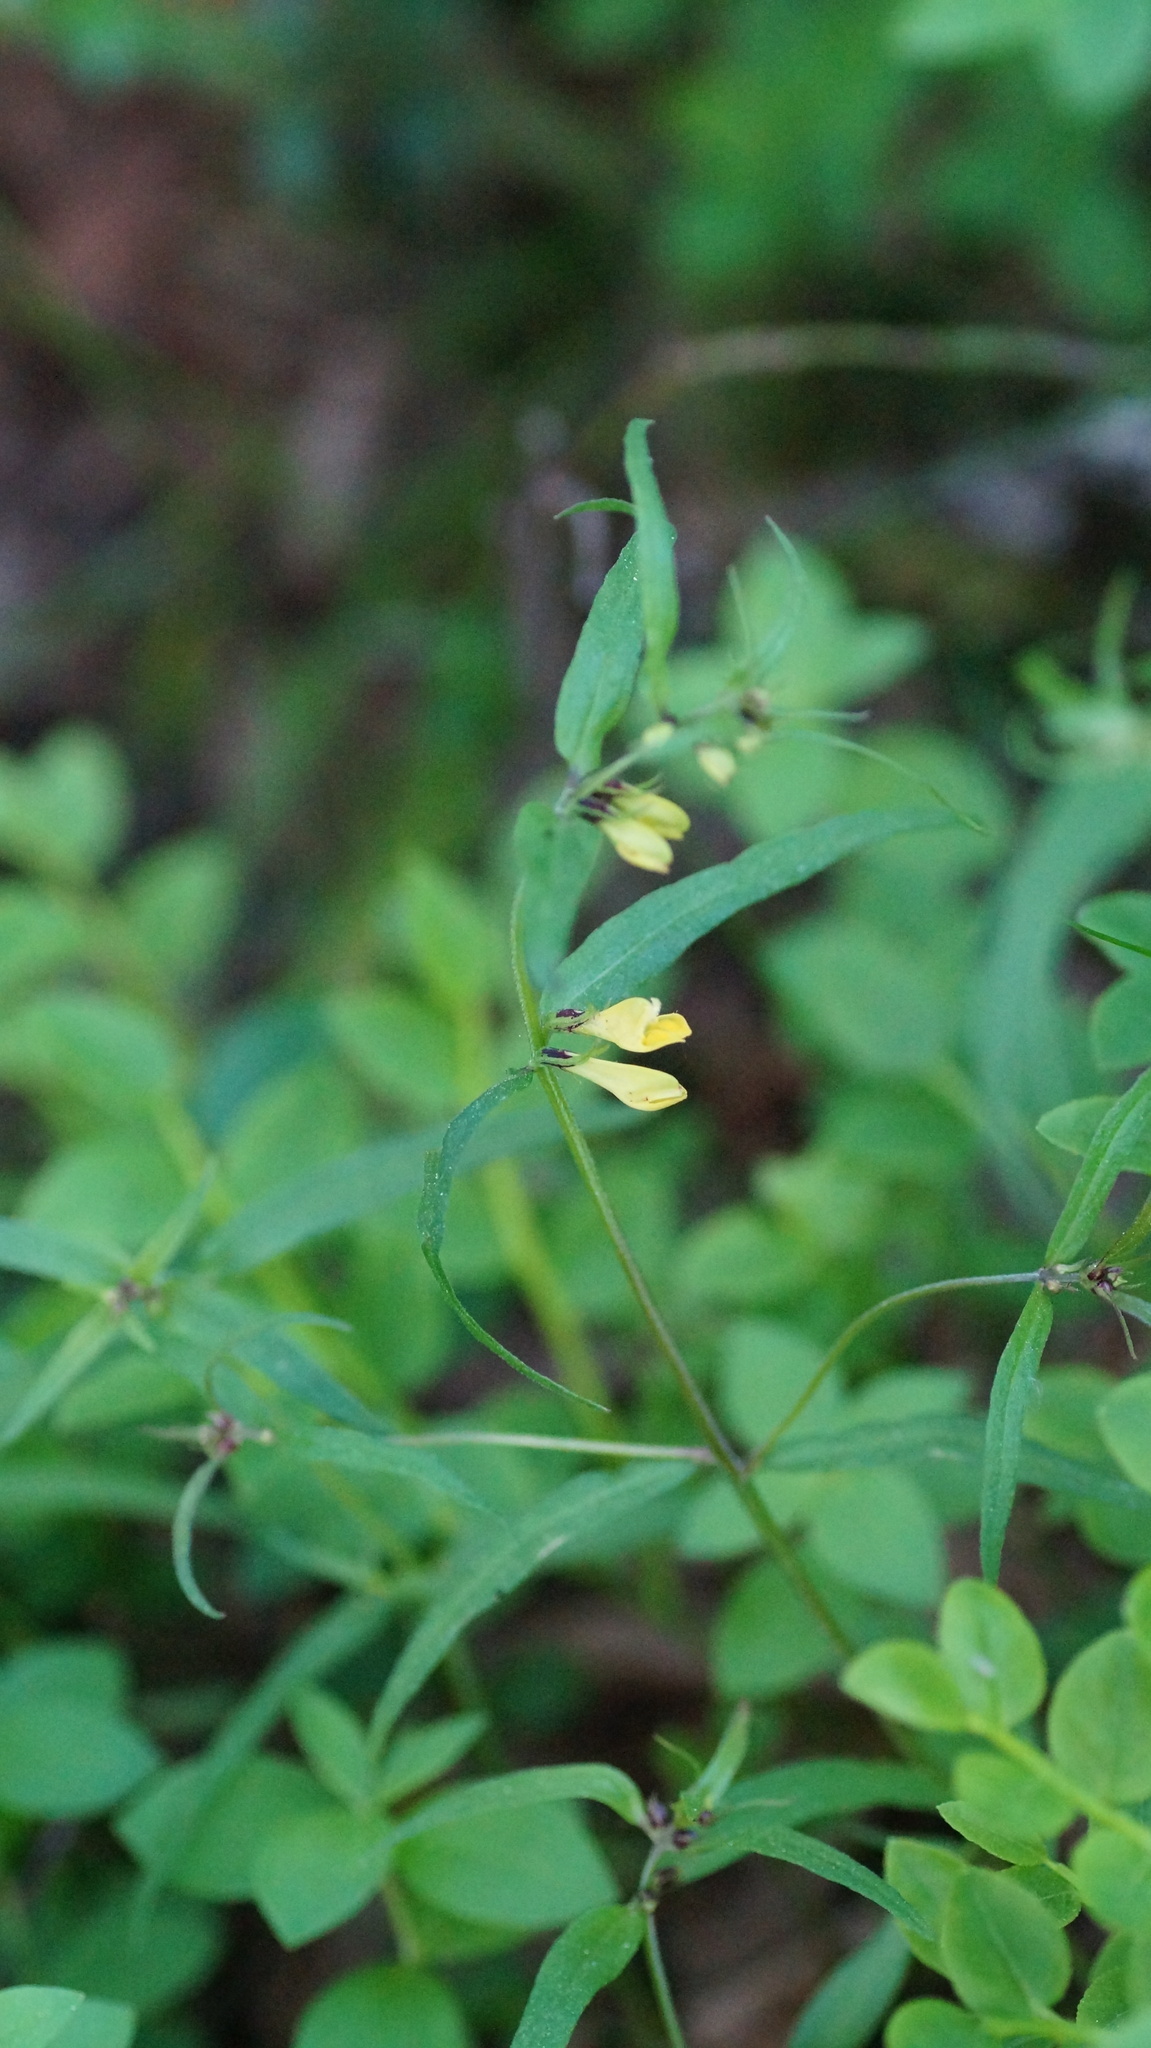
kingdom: Plantae
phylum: Tracheophyta
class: Magnoliopsida
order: Lamiales
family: Orobanchaceae
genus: Melampyrum
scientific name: Melampyrum pratense
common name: Common cow-wheat
